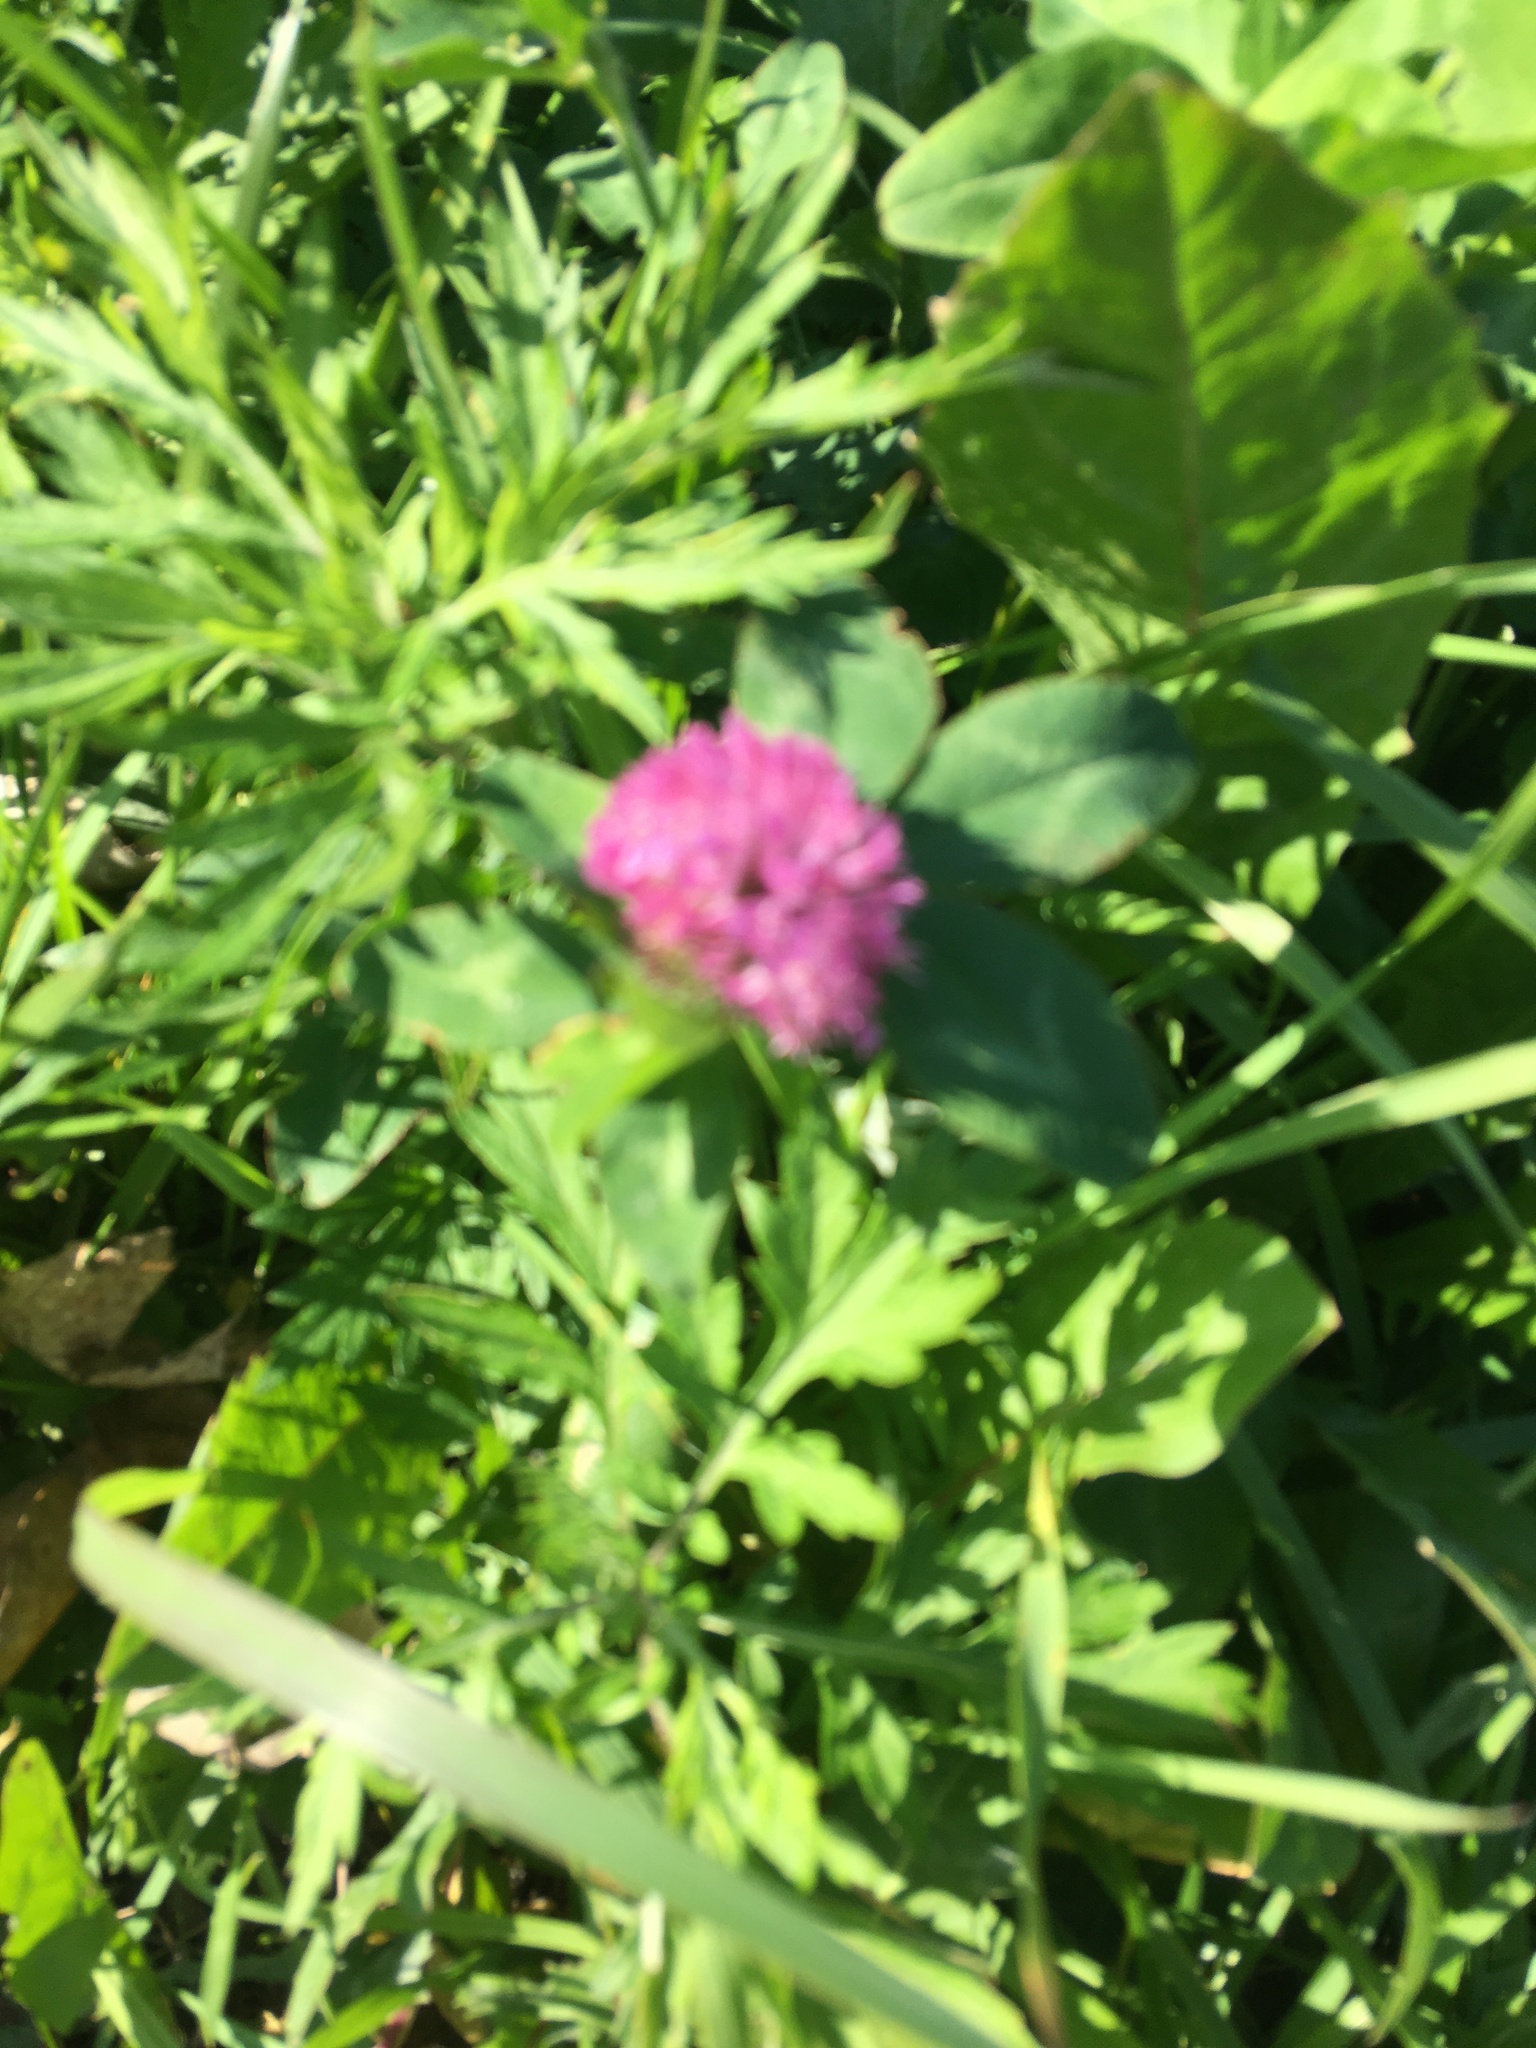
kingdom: Plantae
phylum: Tracheophyta
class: Magnoliopsida
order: Fabales
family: Fabaceae
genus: Trifolium
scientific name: Trifolium pratense
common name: Red clover
